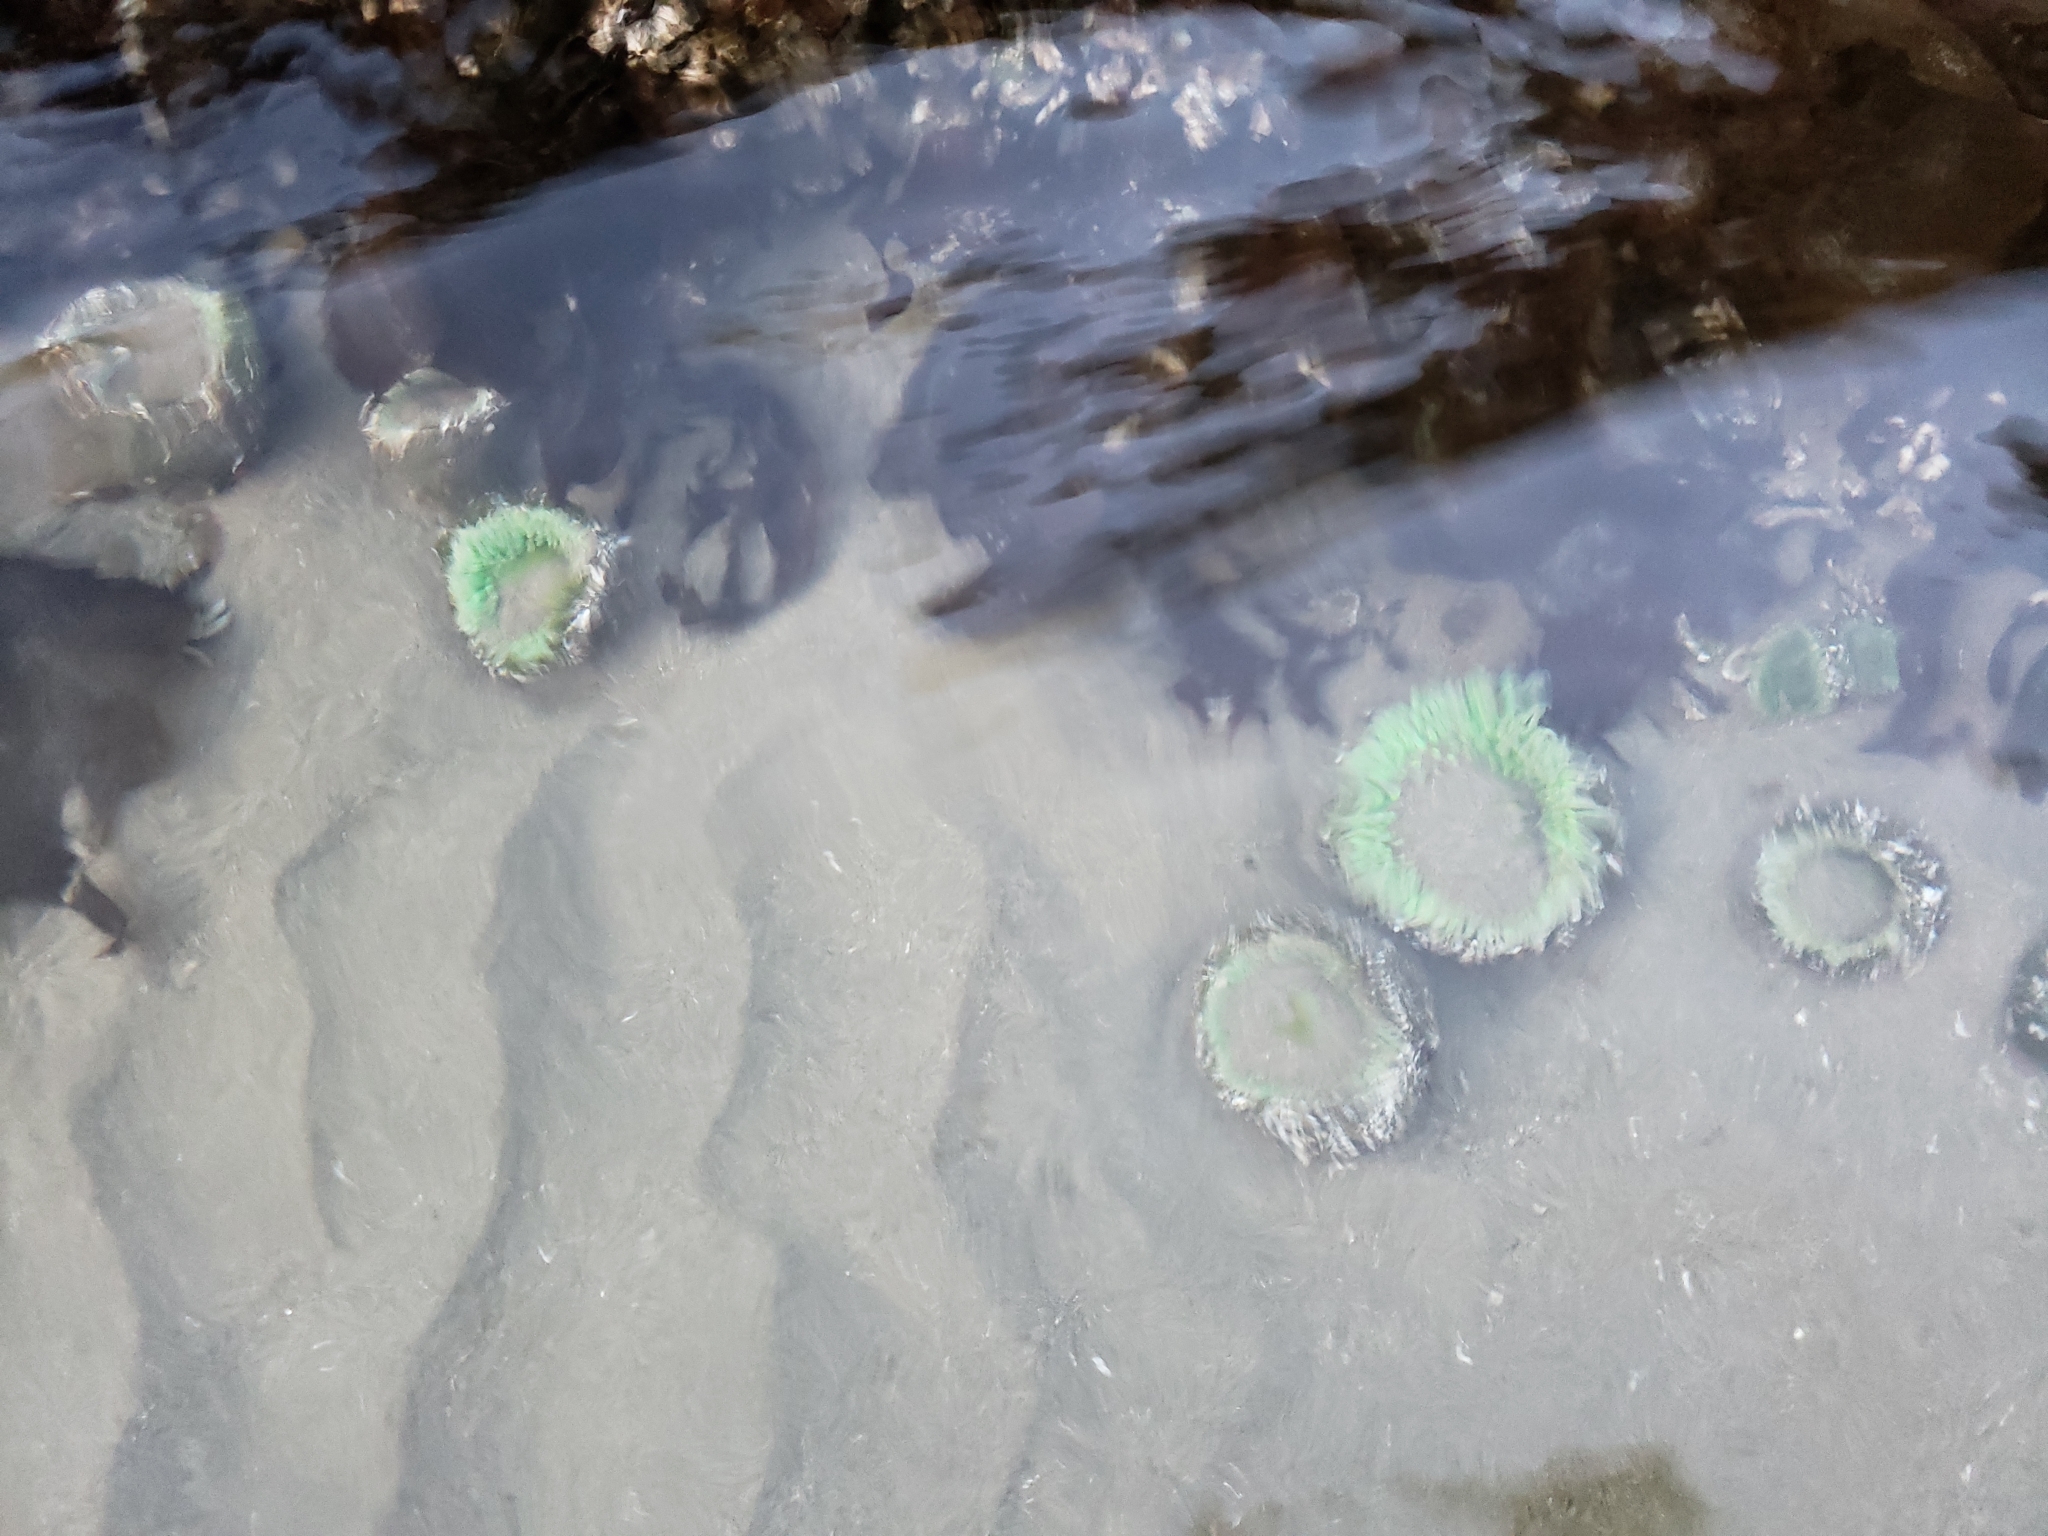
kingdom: Animalia
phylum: Cnidaria
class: Anthozoa
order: Actiniaria
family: Actiniidae
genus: Anthopleura
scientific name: Anthopleura xanthogrammica
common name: Giant green anemone
